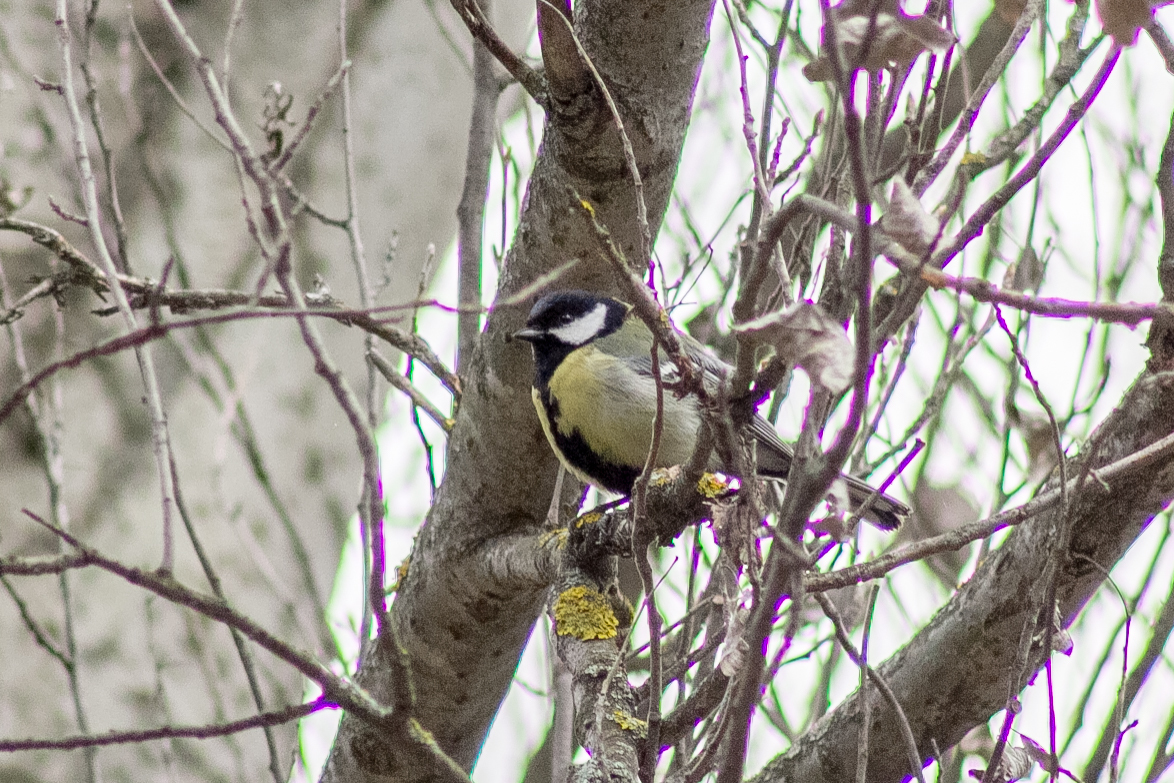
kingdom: Animalia
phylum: Chordata
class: Aves
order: Passeriformes
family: Paridae
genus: Parus
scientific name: Parus major
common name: Great tit
